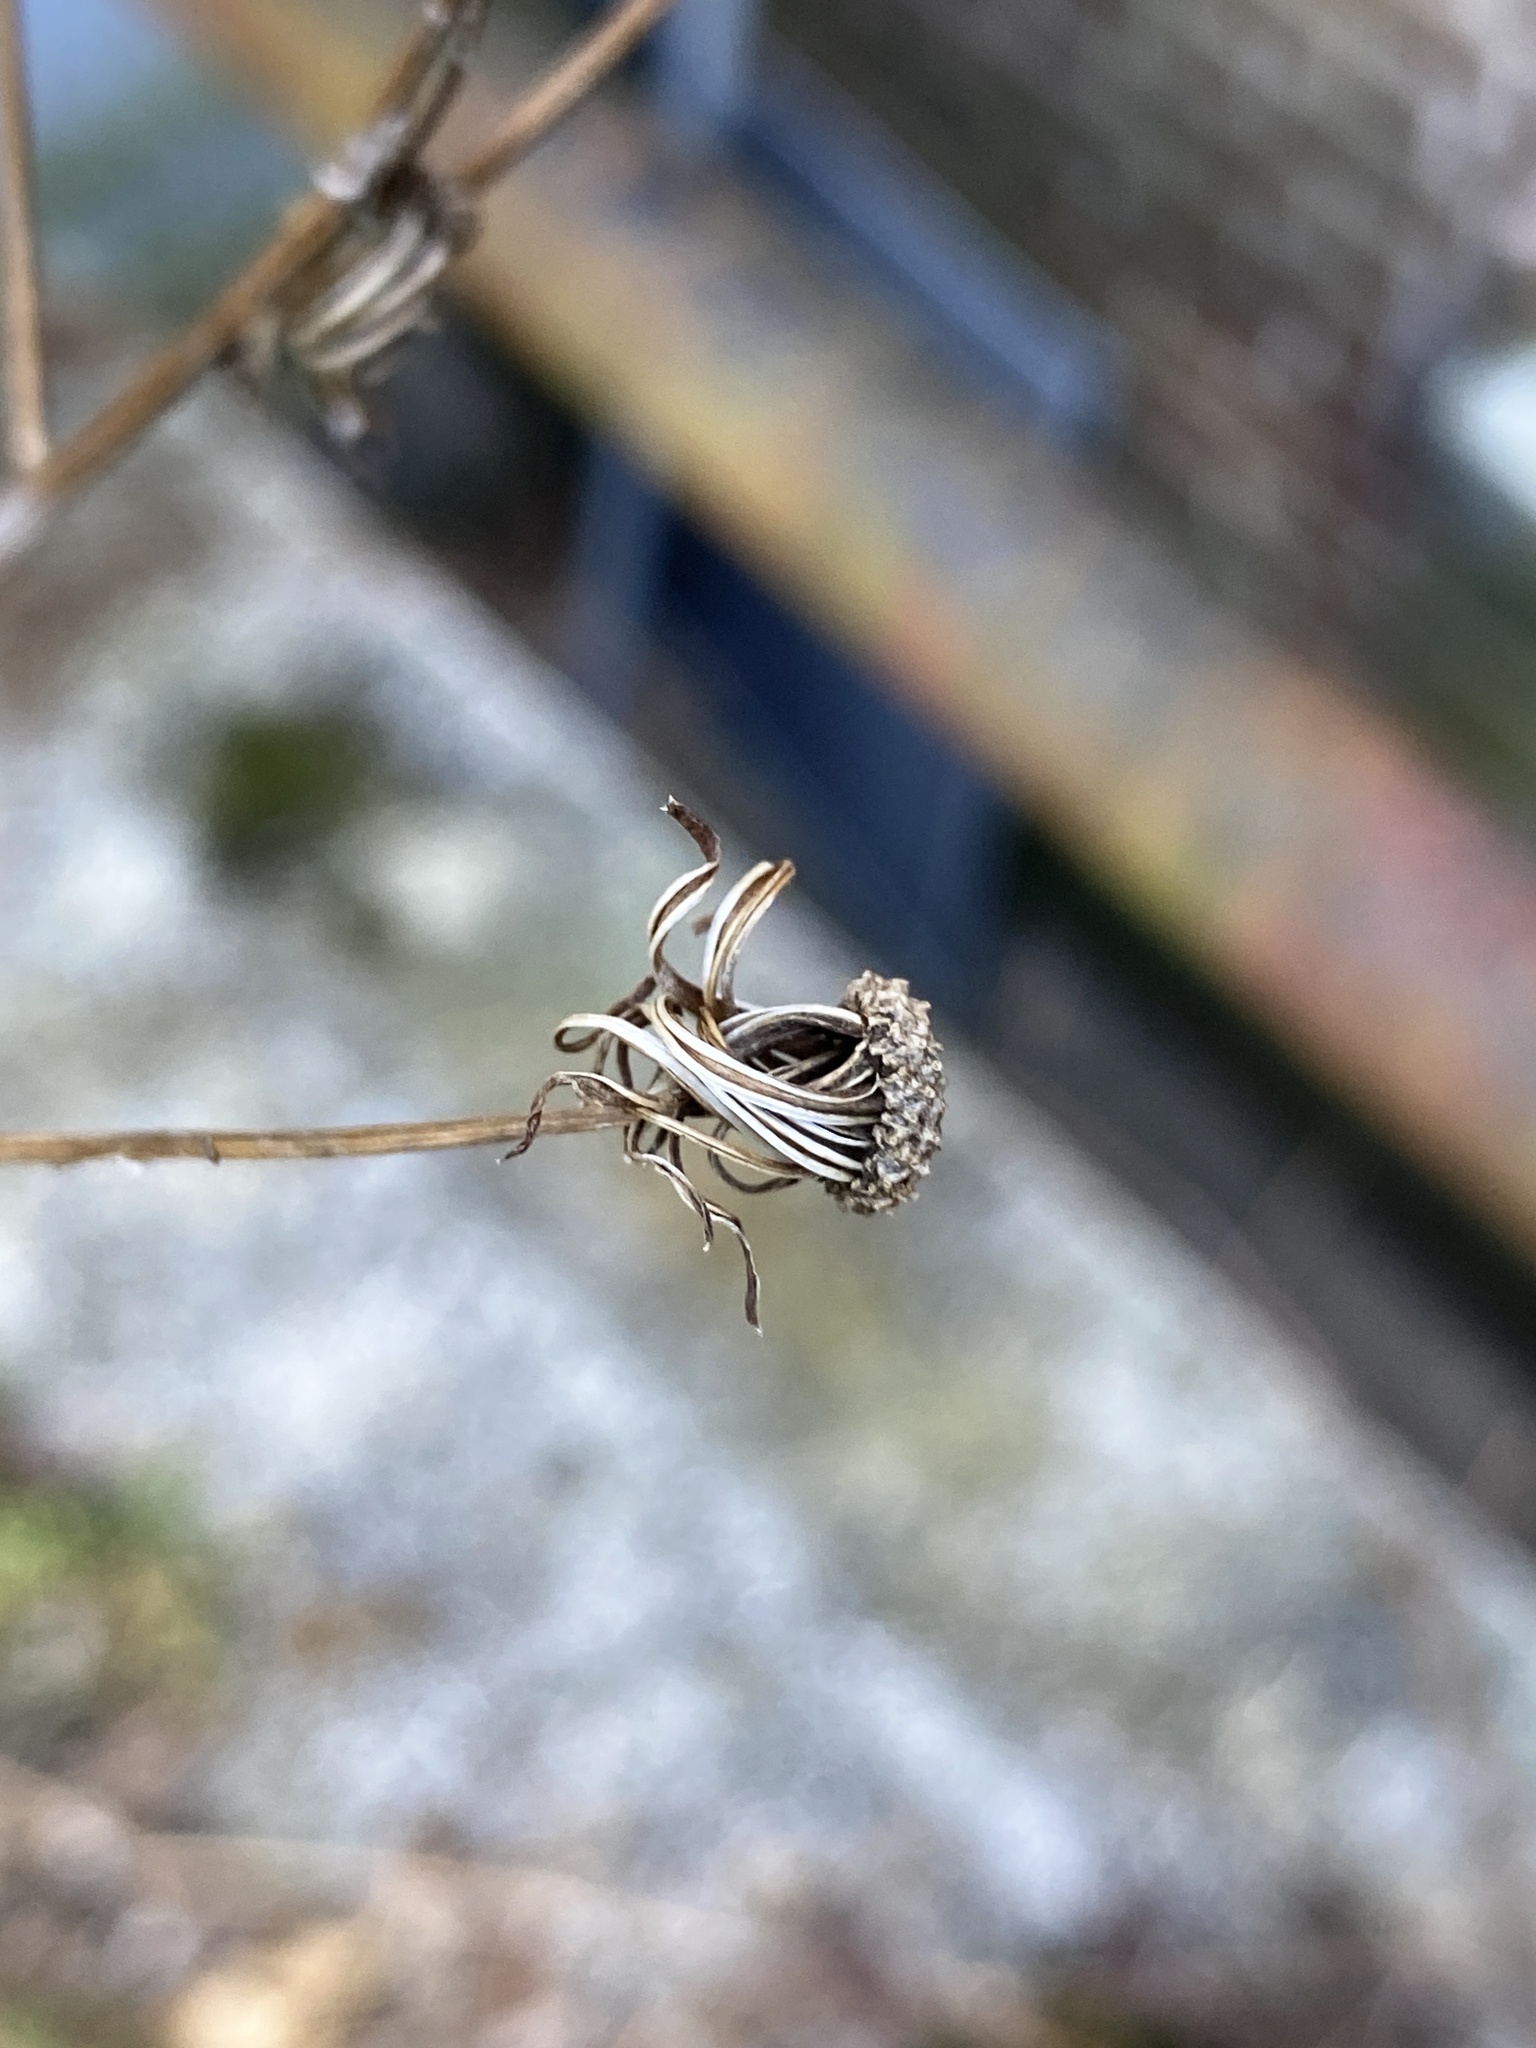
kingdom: Plantae
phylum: Tracheophyta
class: Magnoliopsida
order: Asterales
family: Asteraceae
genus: Erechtites
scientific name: Erechtites hieraciifolius
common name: American burnweed
